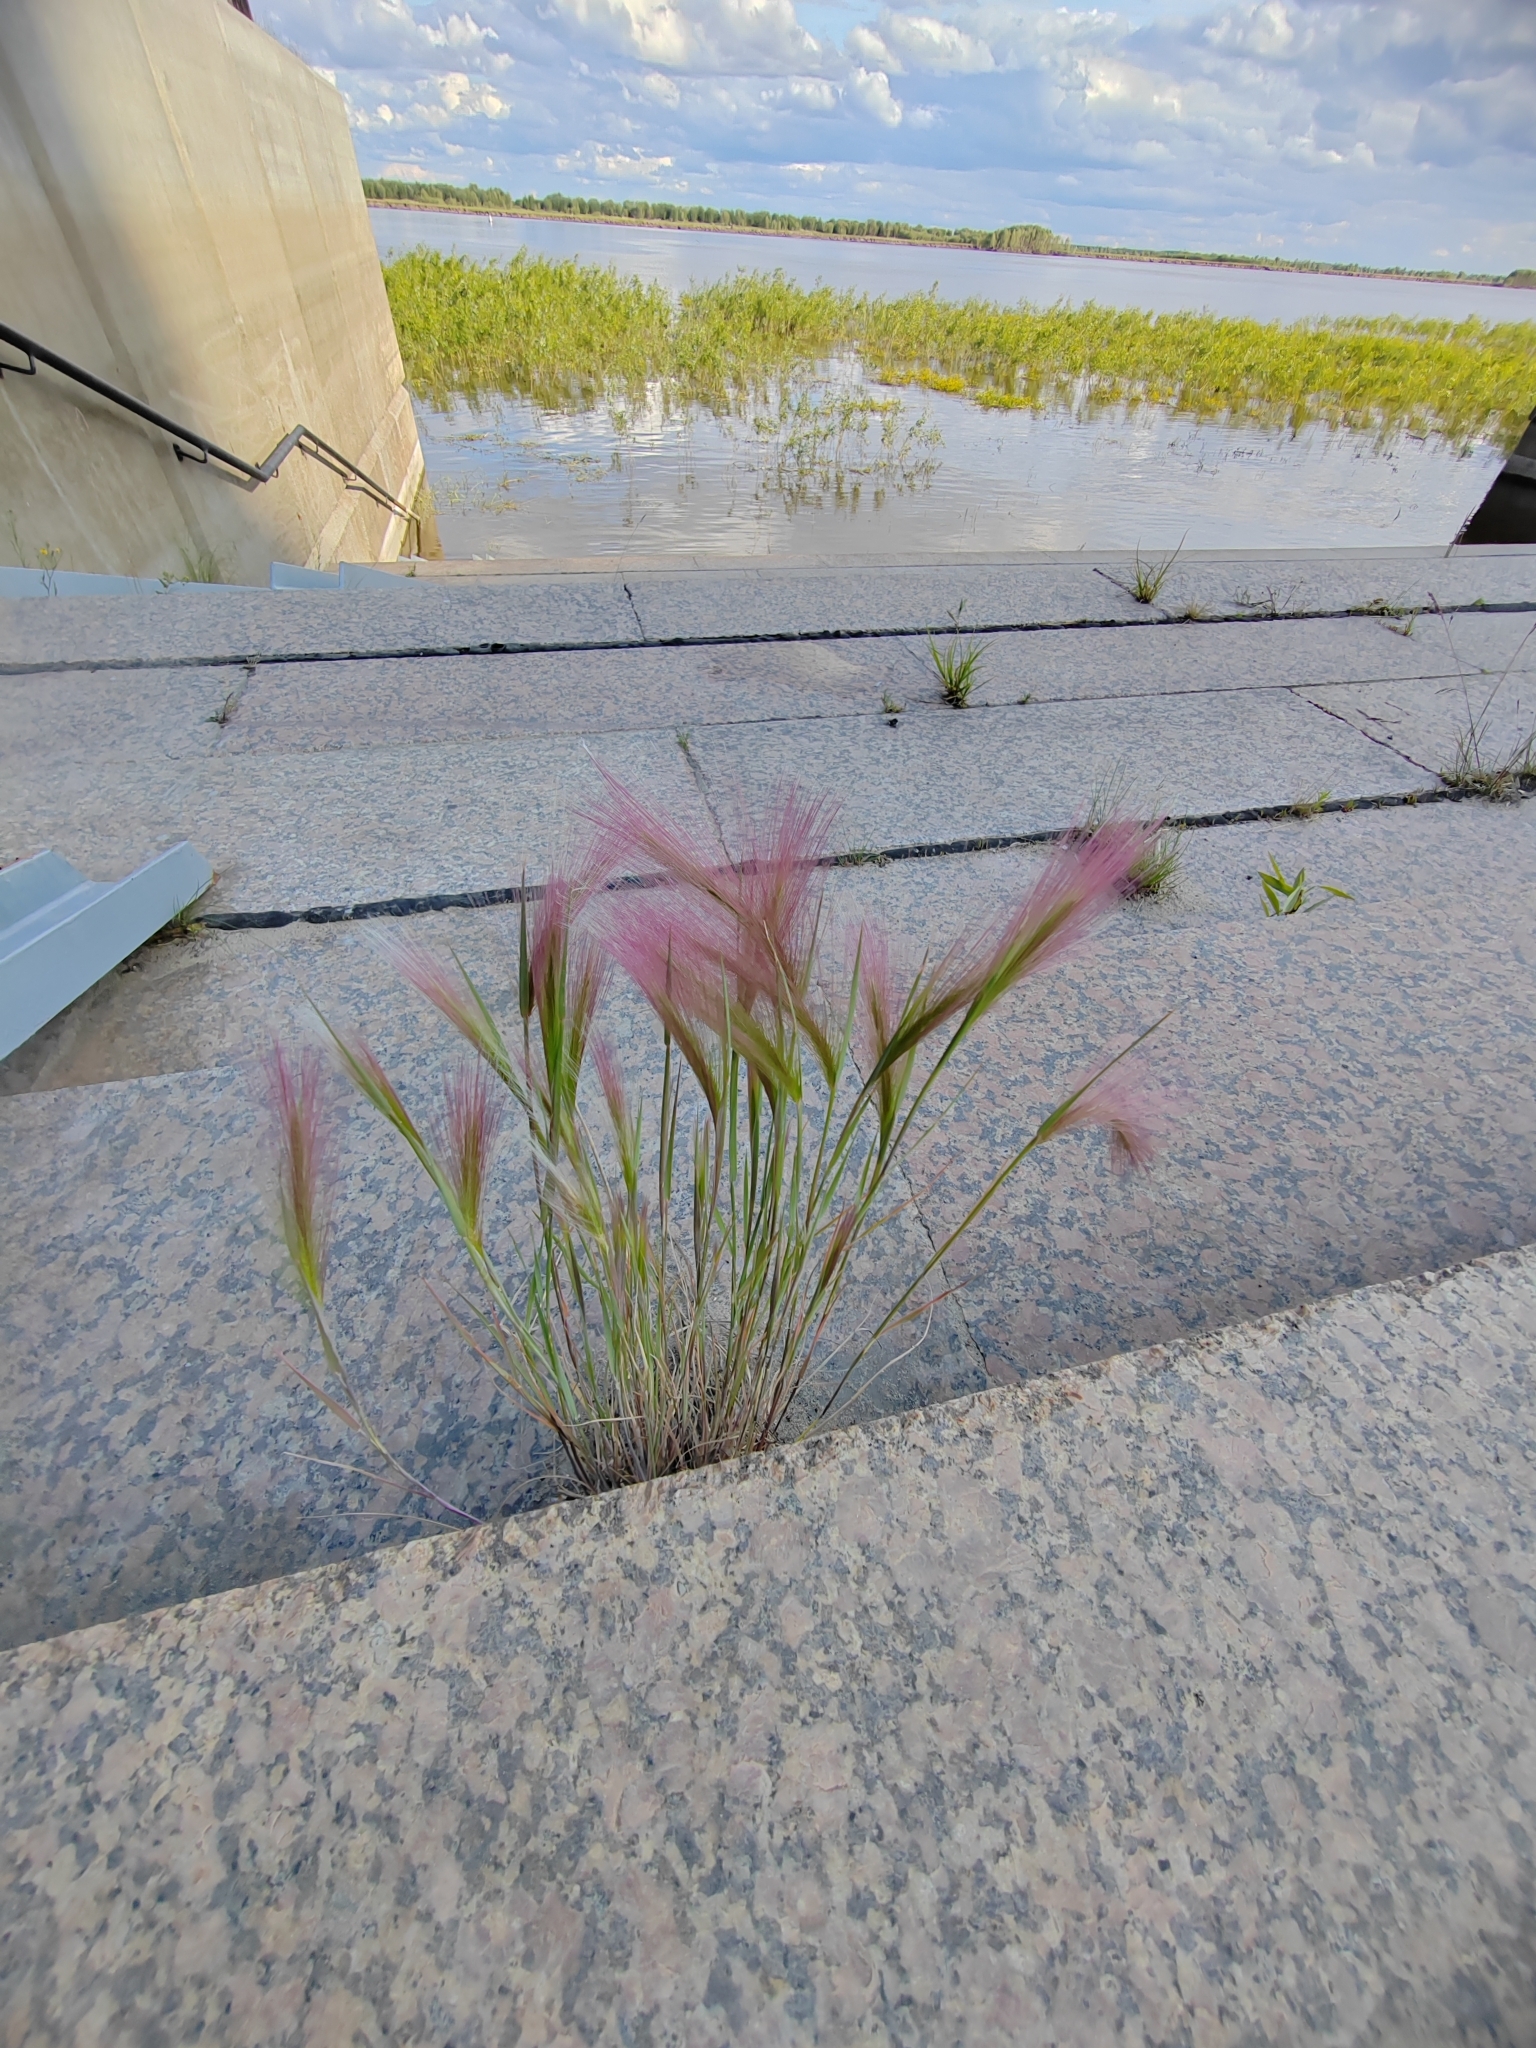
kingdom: Plantae
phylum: Tracheophyta
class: Liliopsida
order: Poales
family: Poaceae
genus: Hordeum
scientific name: Hordeum jubatum
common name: Foxtail barley
